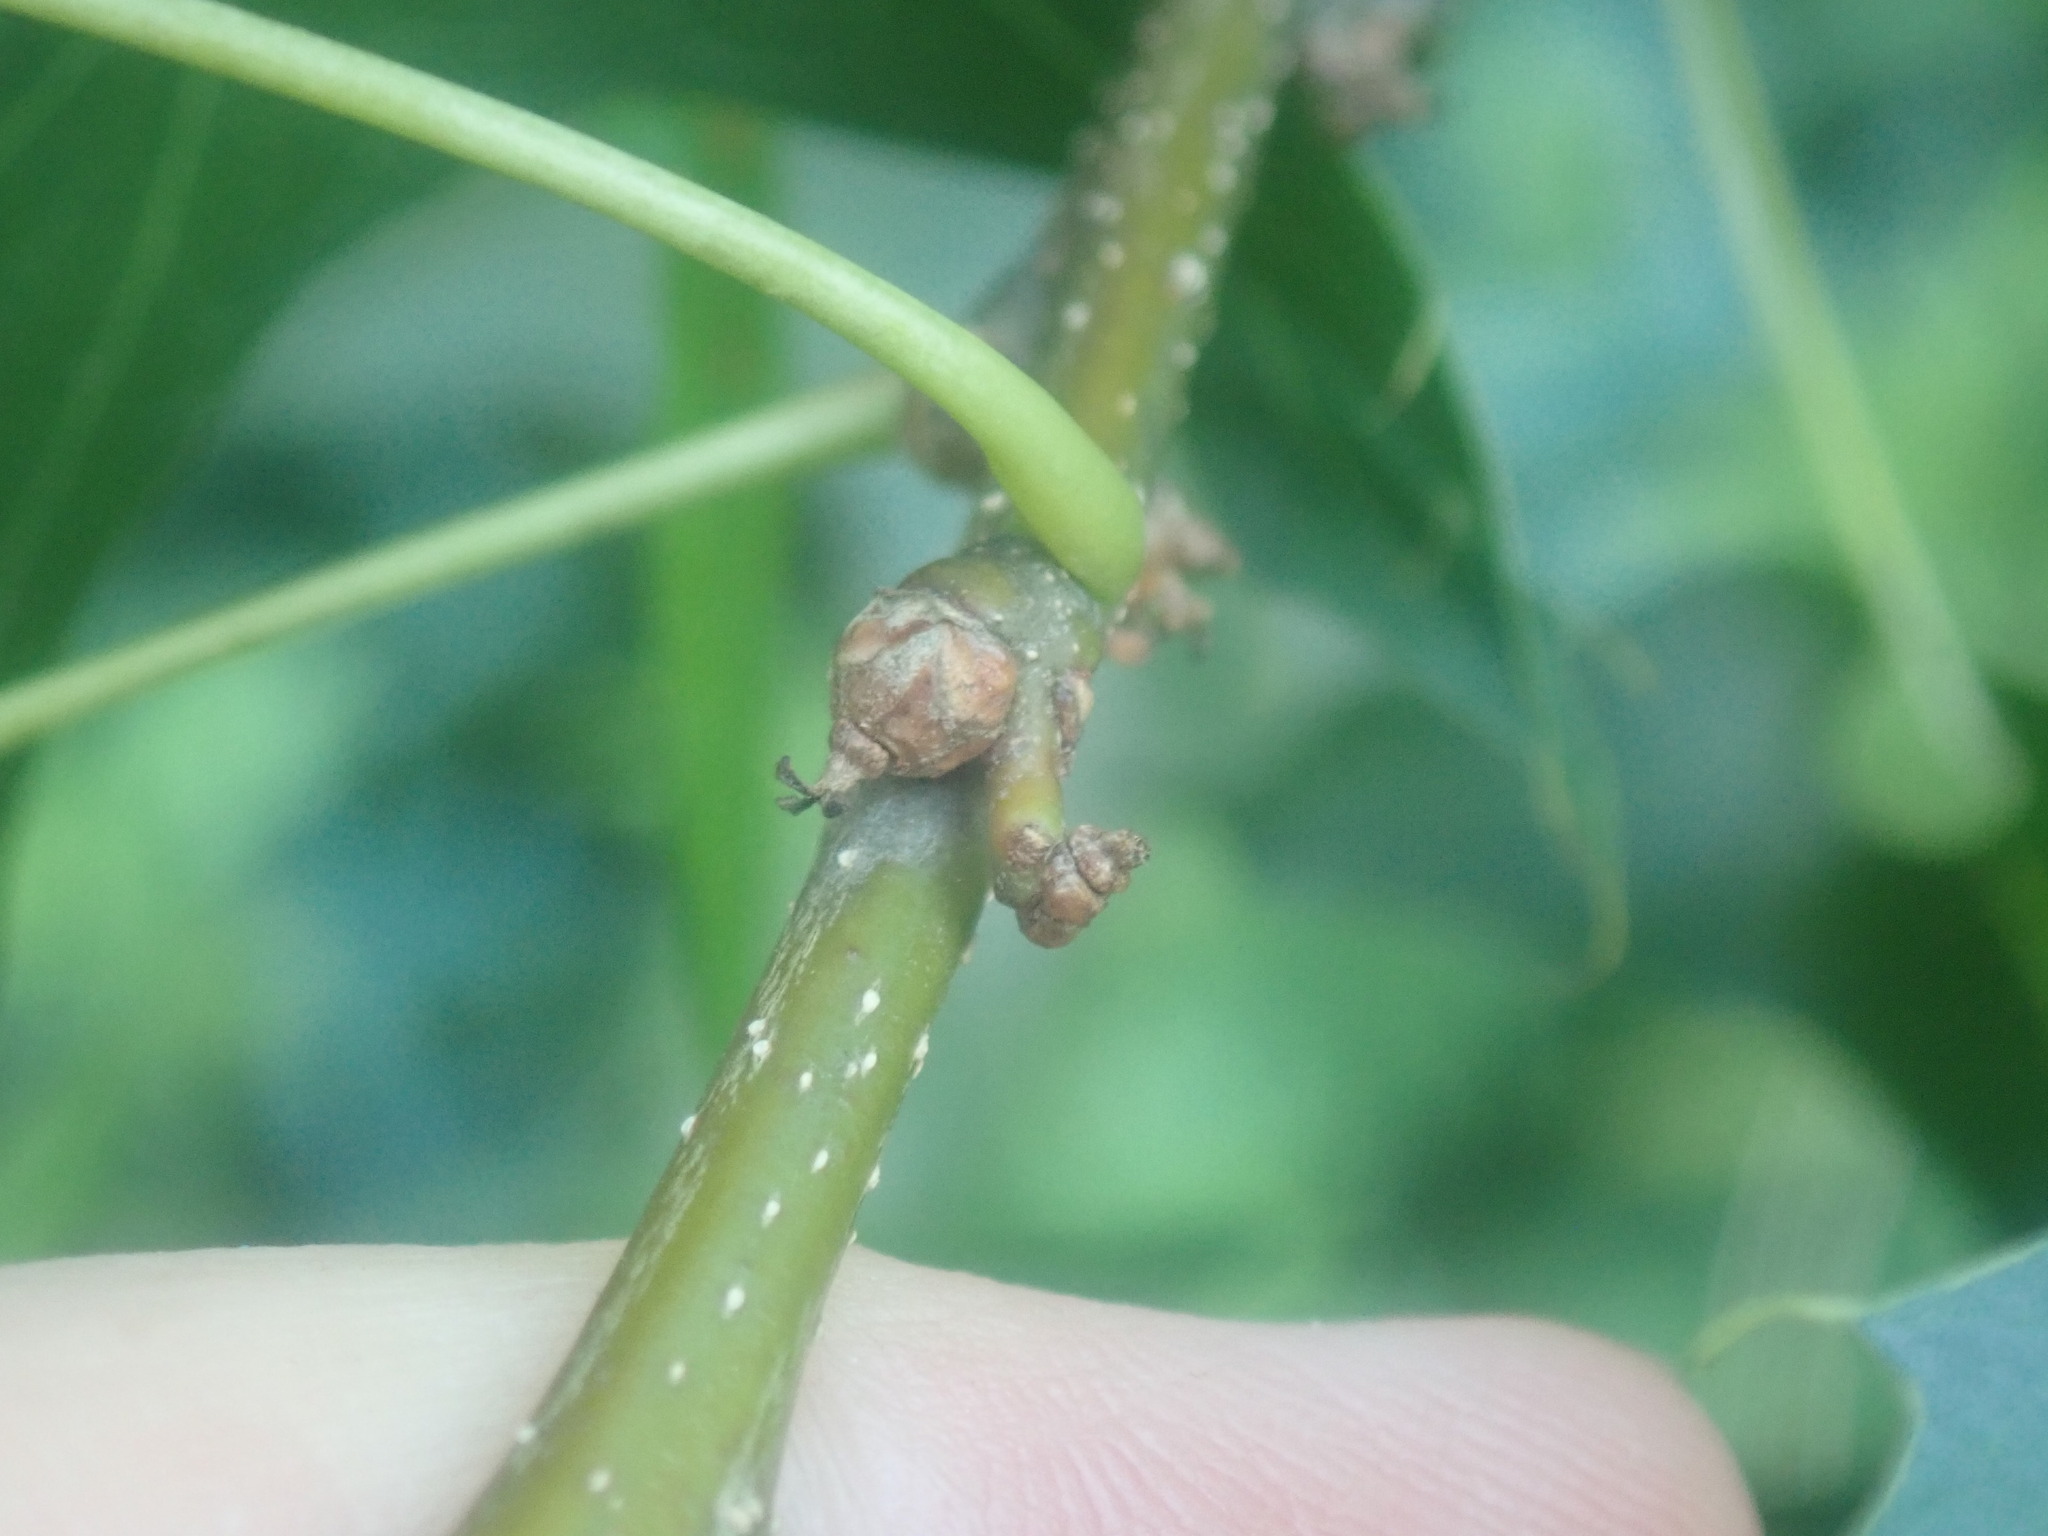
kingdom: Plantae
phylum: Tracheophyta
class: Magnoliopsida
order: Fagales
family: Fagaceae
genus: Quercus
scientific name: Quercus palustris
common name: Pin oak
